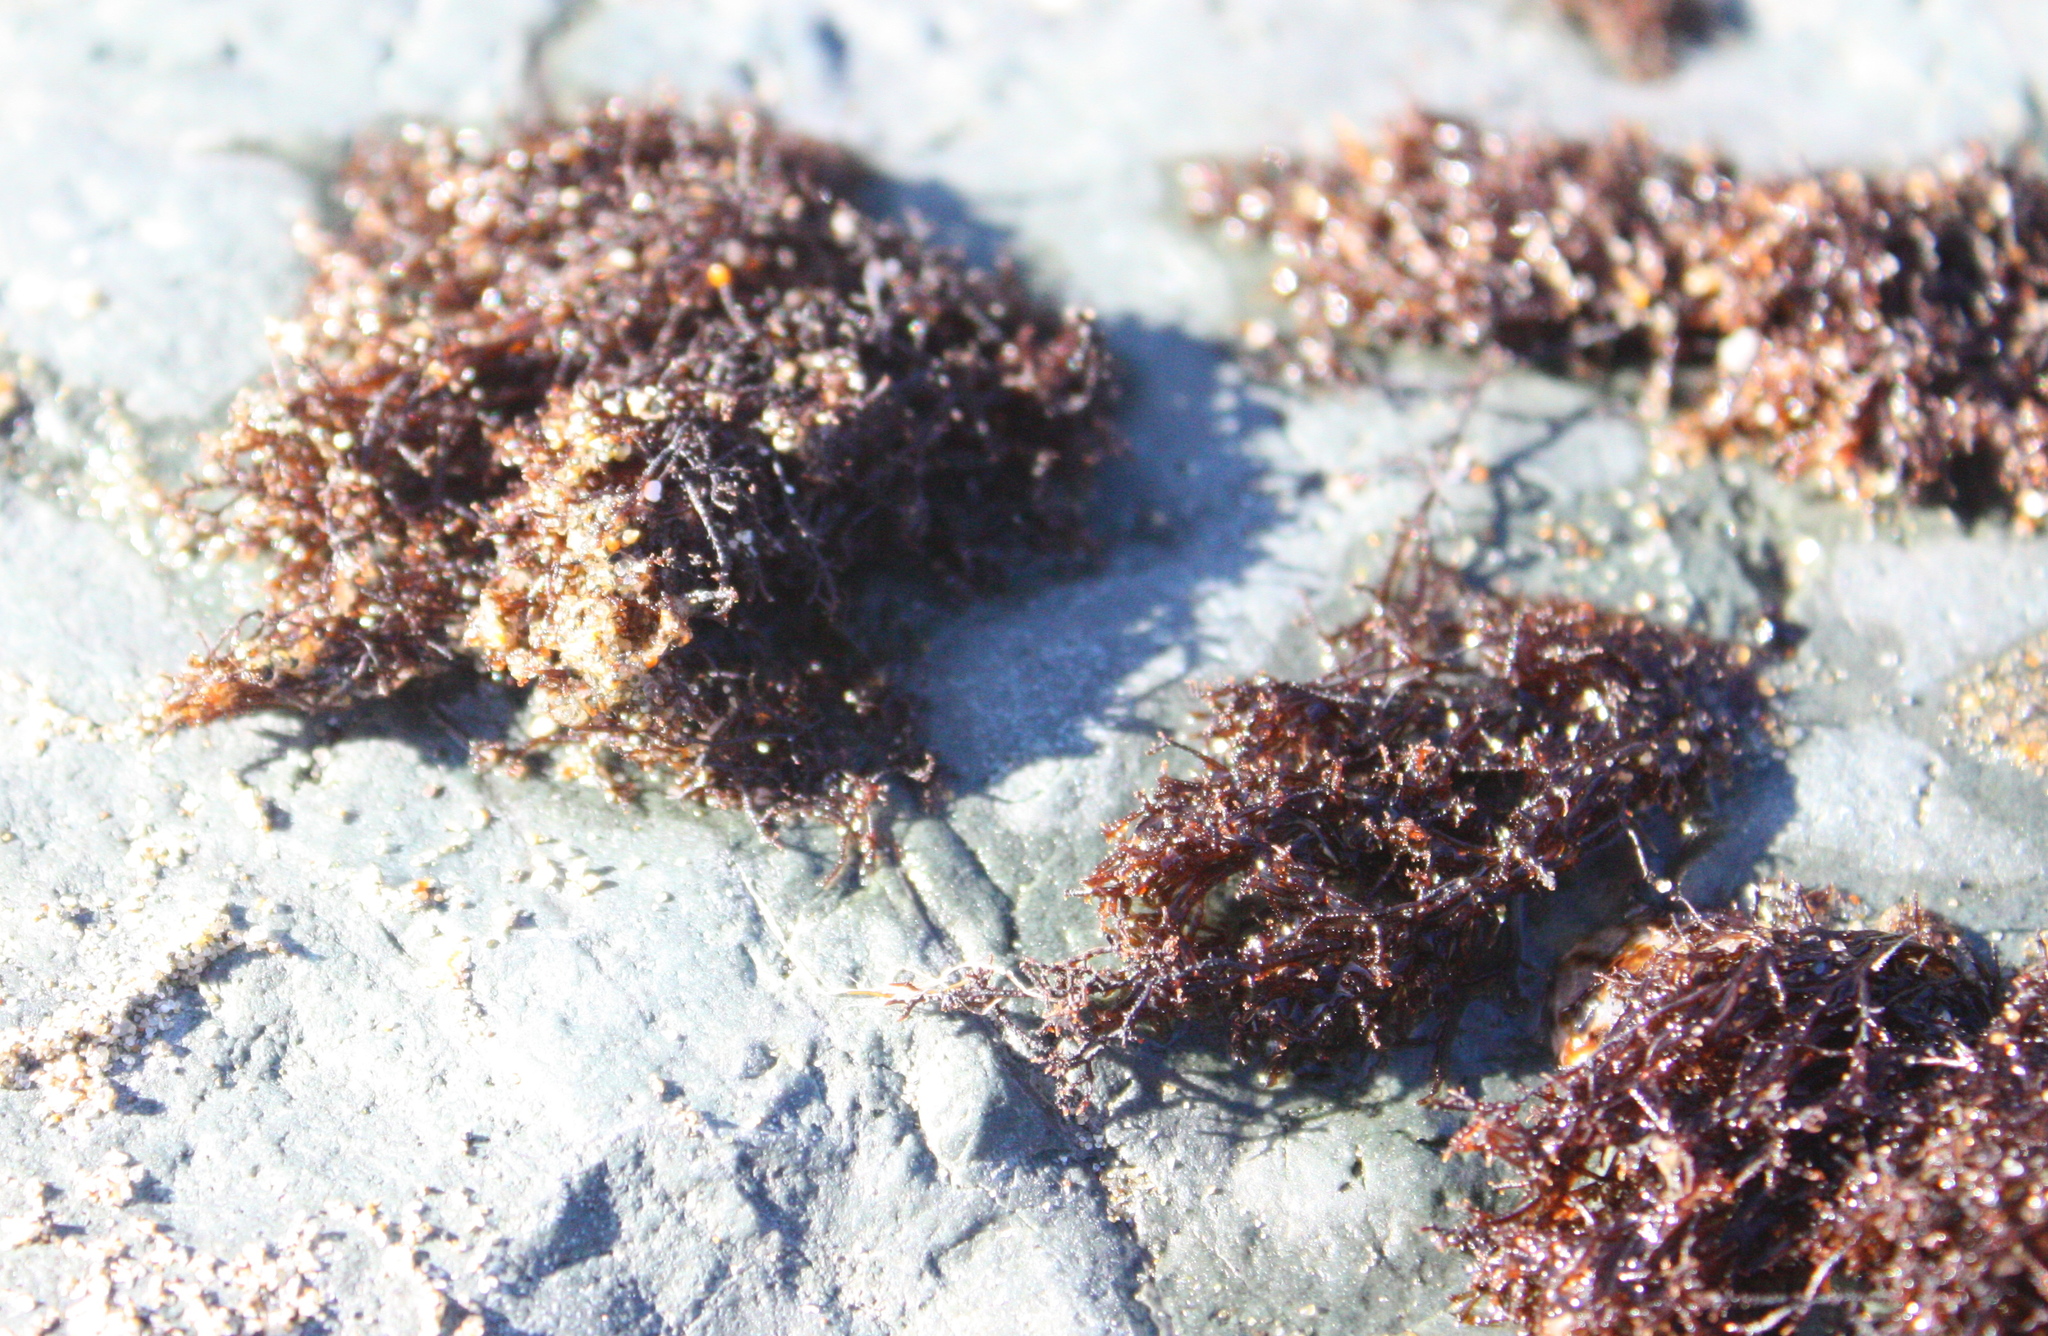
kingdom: Plantae
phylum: Rhodophyta
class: Florideophyceae
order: Gigartinales
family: Endocladiaceae
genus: Endocladia
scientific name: Endocladia muricata
